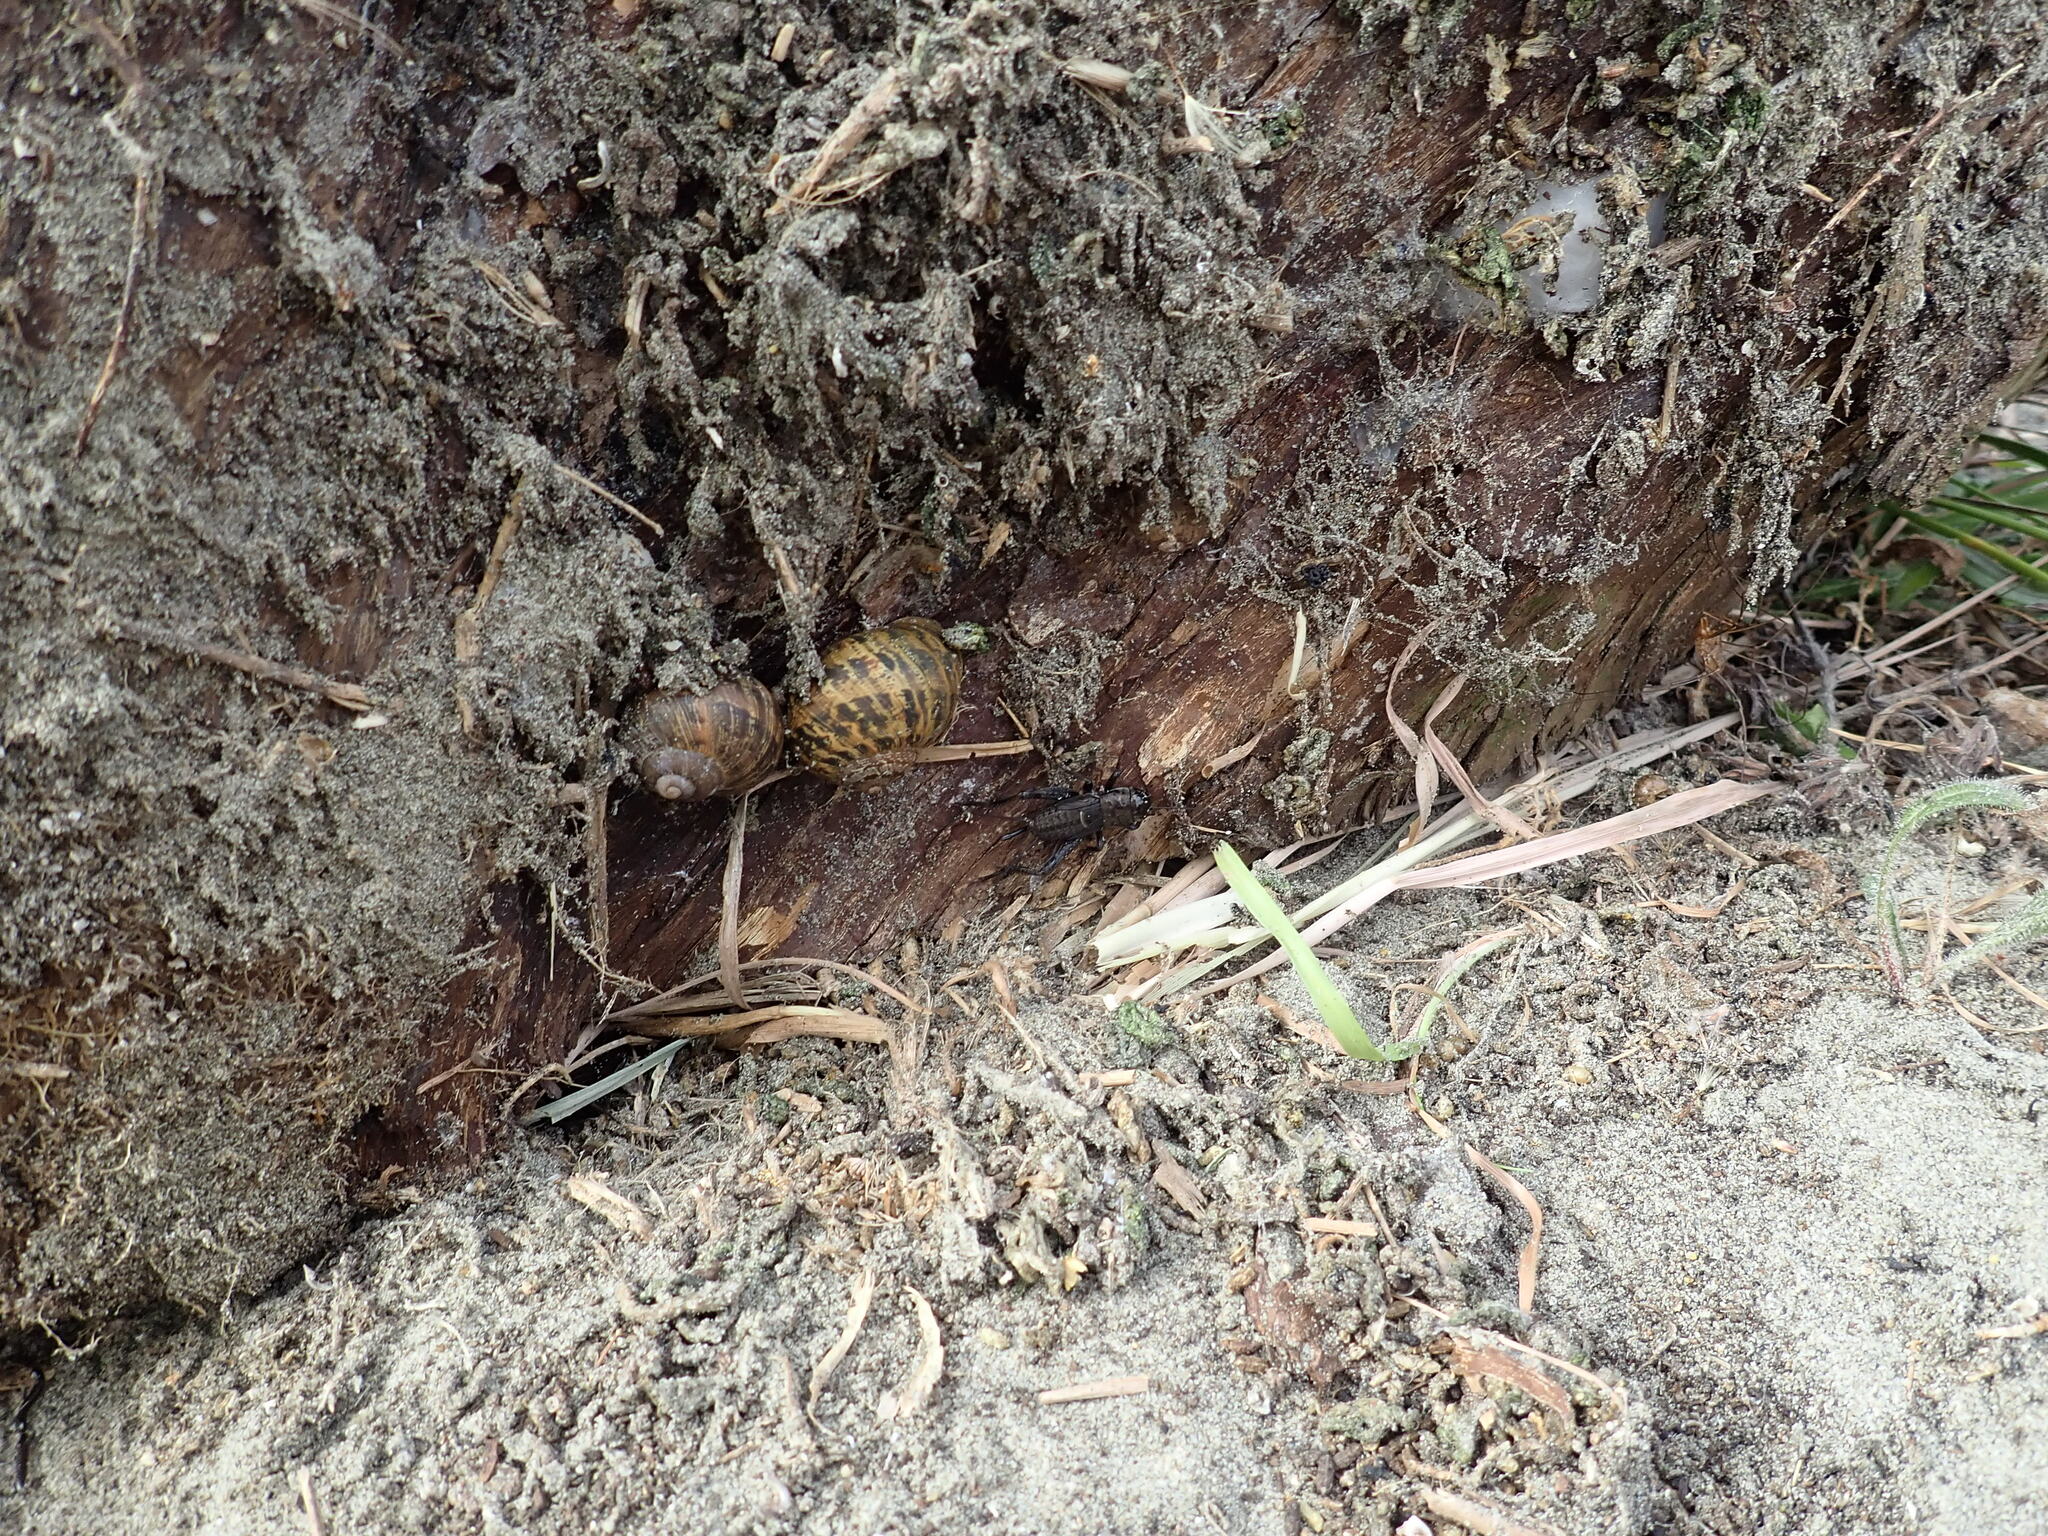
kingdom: Animalia
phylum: Arthropoda
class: Insecta
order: Orthoptera
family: Gryllidae
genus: Teleogryllus
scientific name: Teleogryllus commodus
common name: Black field cricket
